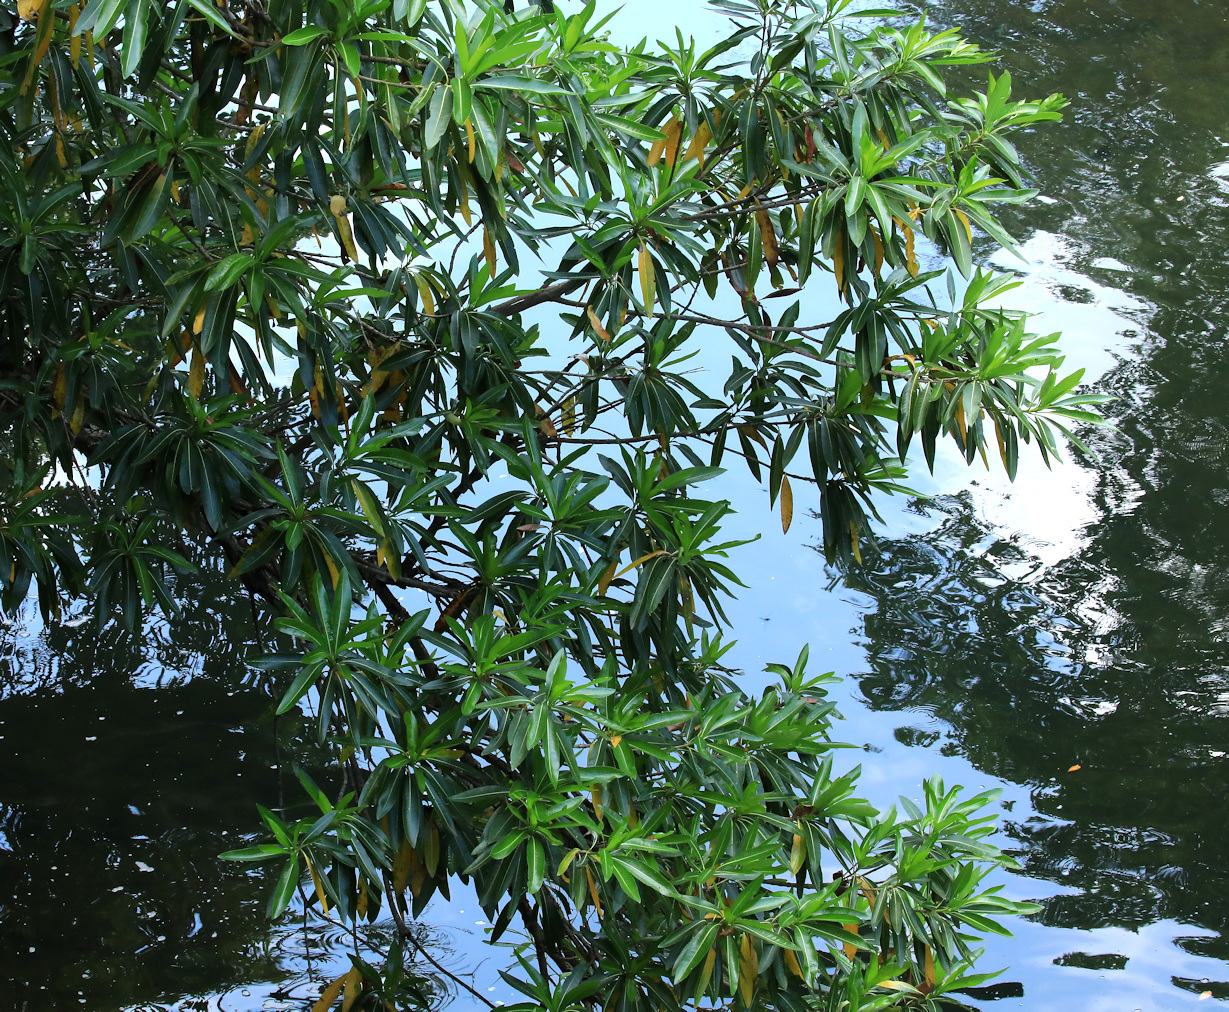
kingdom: Plantae
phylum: Tracheophyta
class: Magnoliopsida
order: Gentianales
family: Rubiaceae
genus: Breonadia
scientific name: Breonadia salicina
